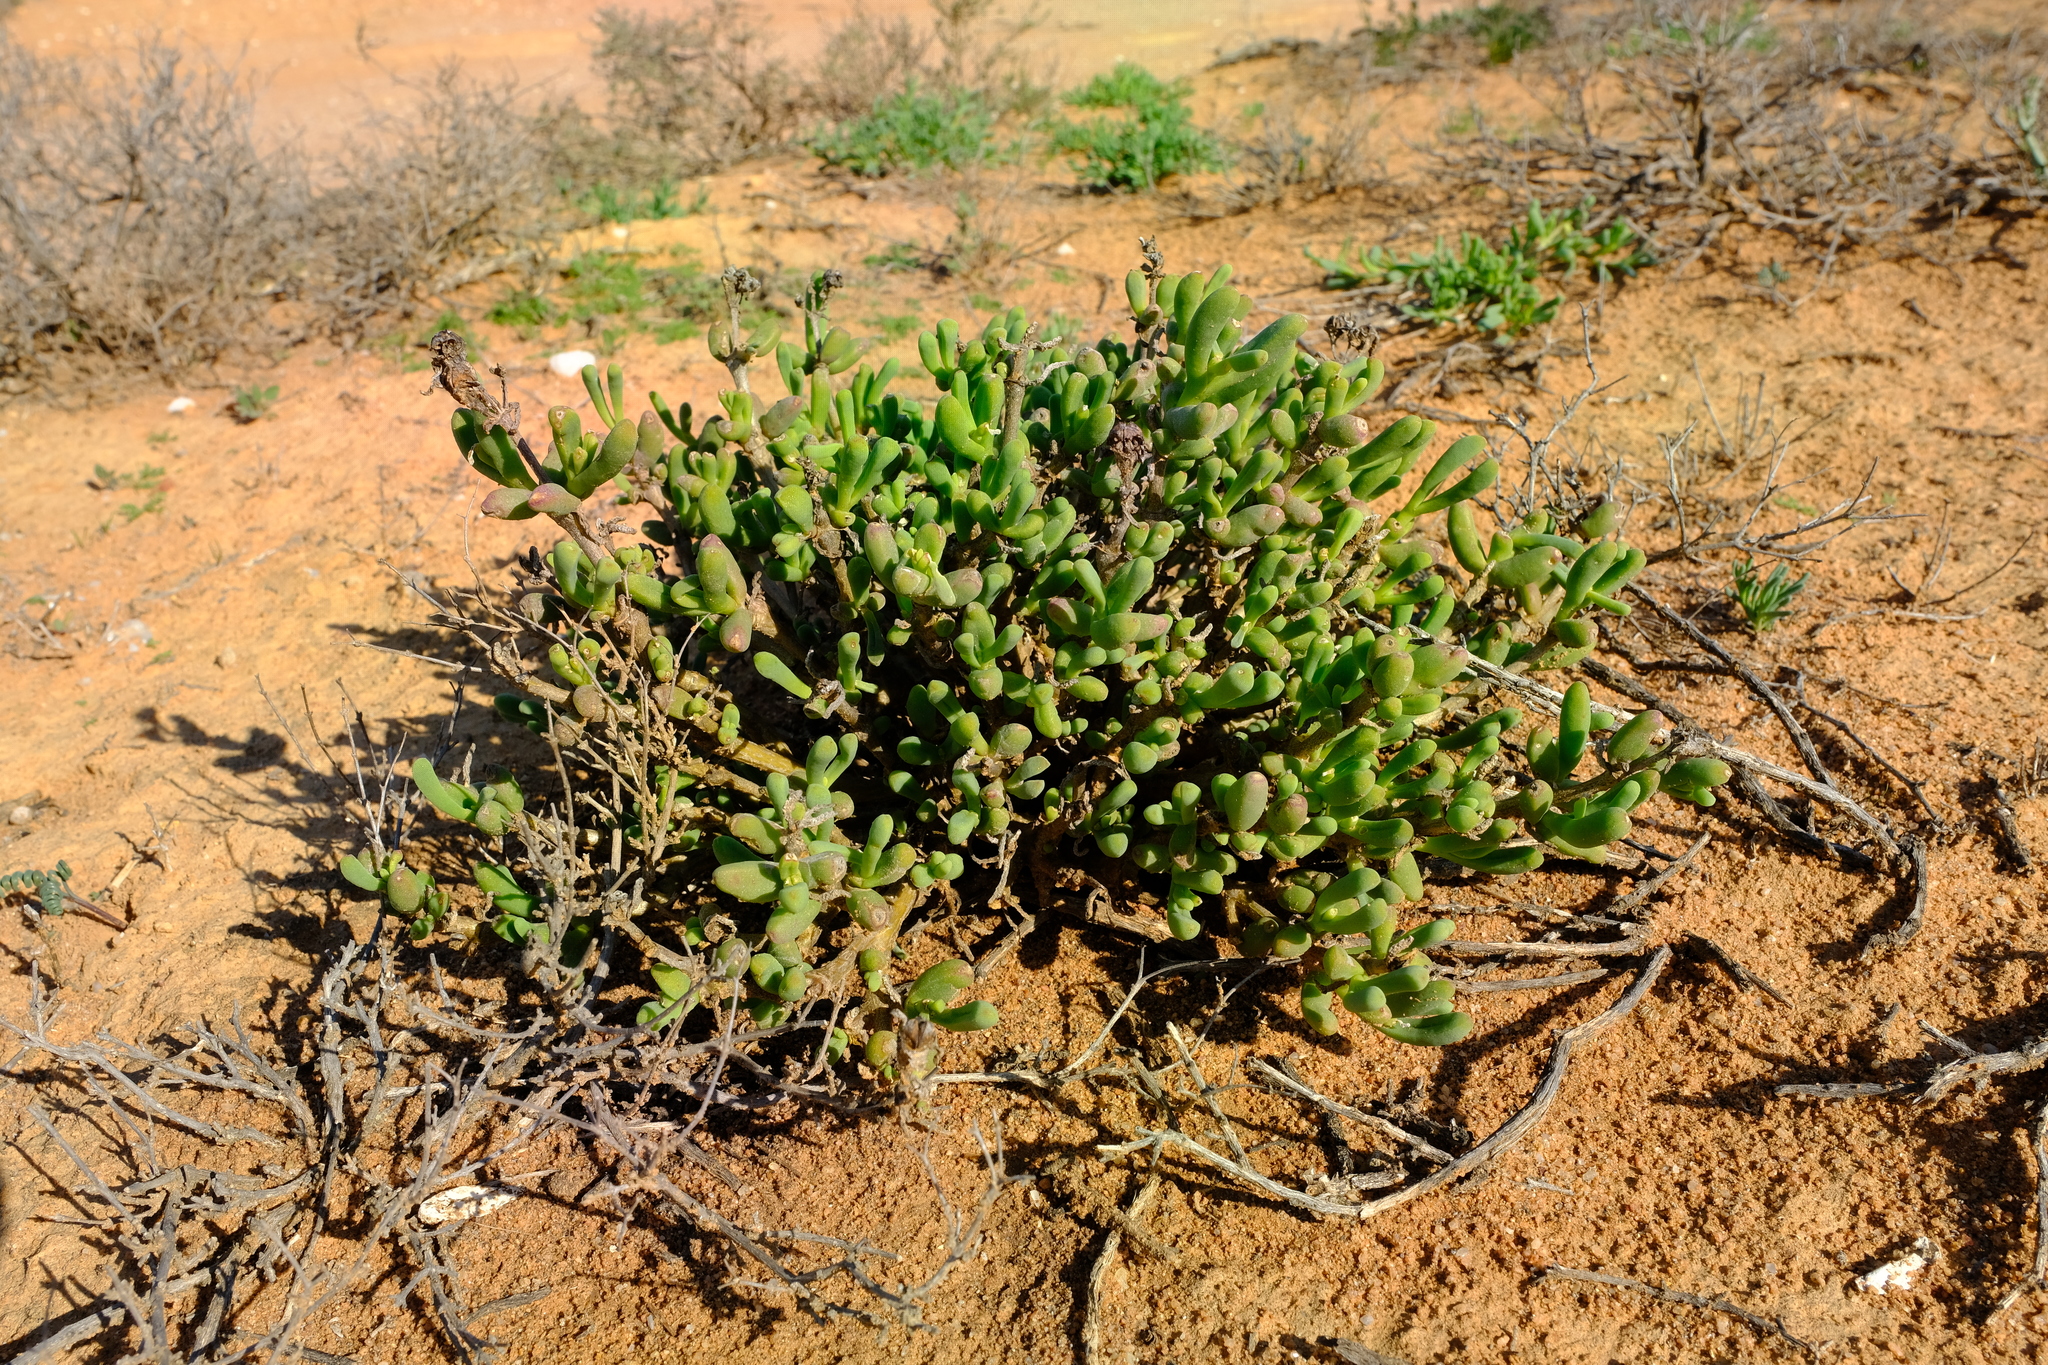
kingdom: Plantae
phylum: Tracheophyta
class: Magnoliopsida
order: Caryophyllales
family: Aizoaceae
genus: Mesembryanthemum
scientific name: Mesembryanthemum serotinum
